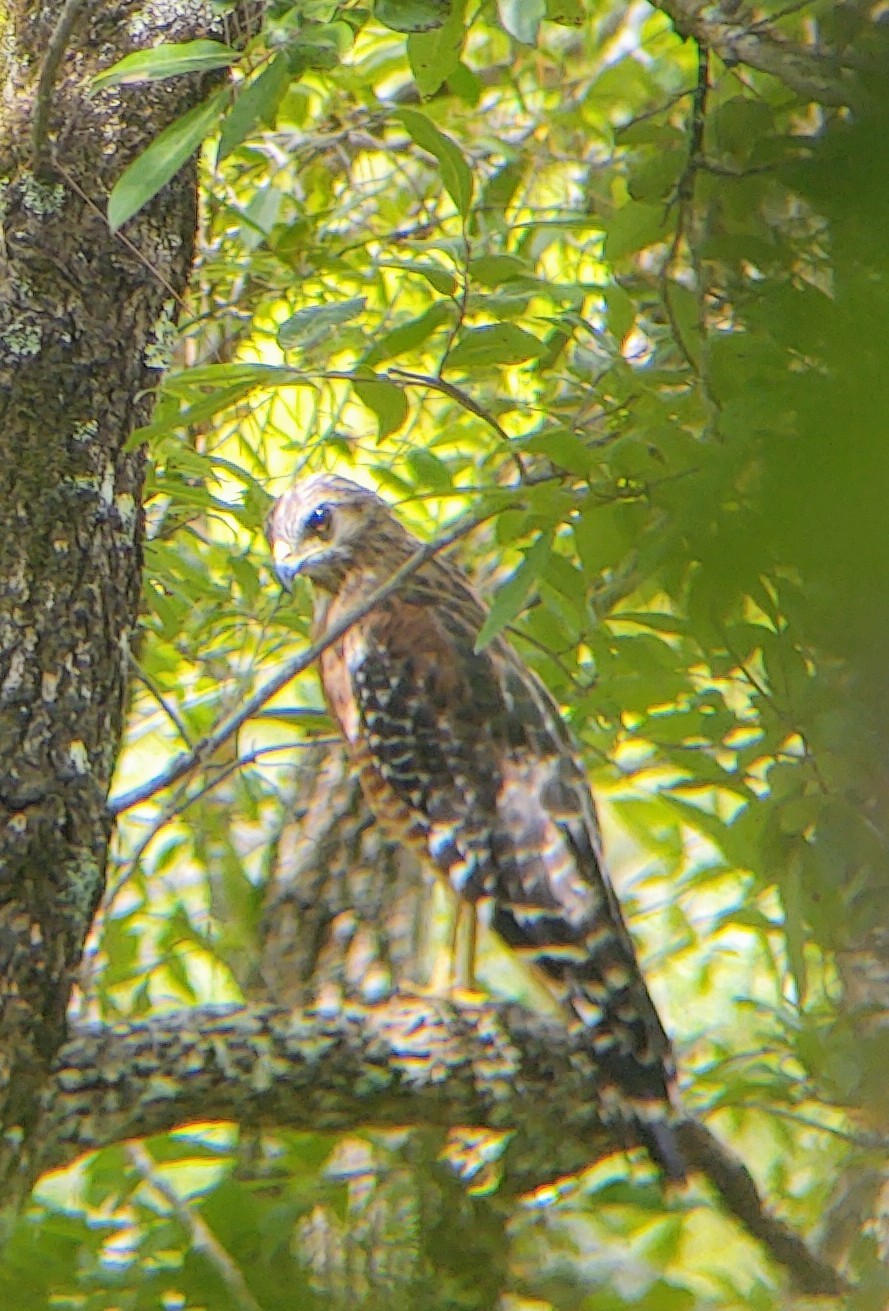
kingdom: Animalia
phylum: Chordata
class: Aves
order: Accipitriformes
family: Accipitridae
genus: Buteo
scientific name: Buteo lineatus
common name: Red-shouldered hawk
